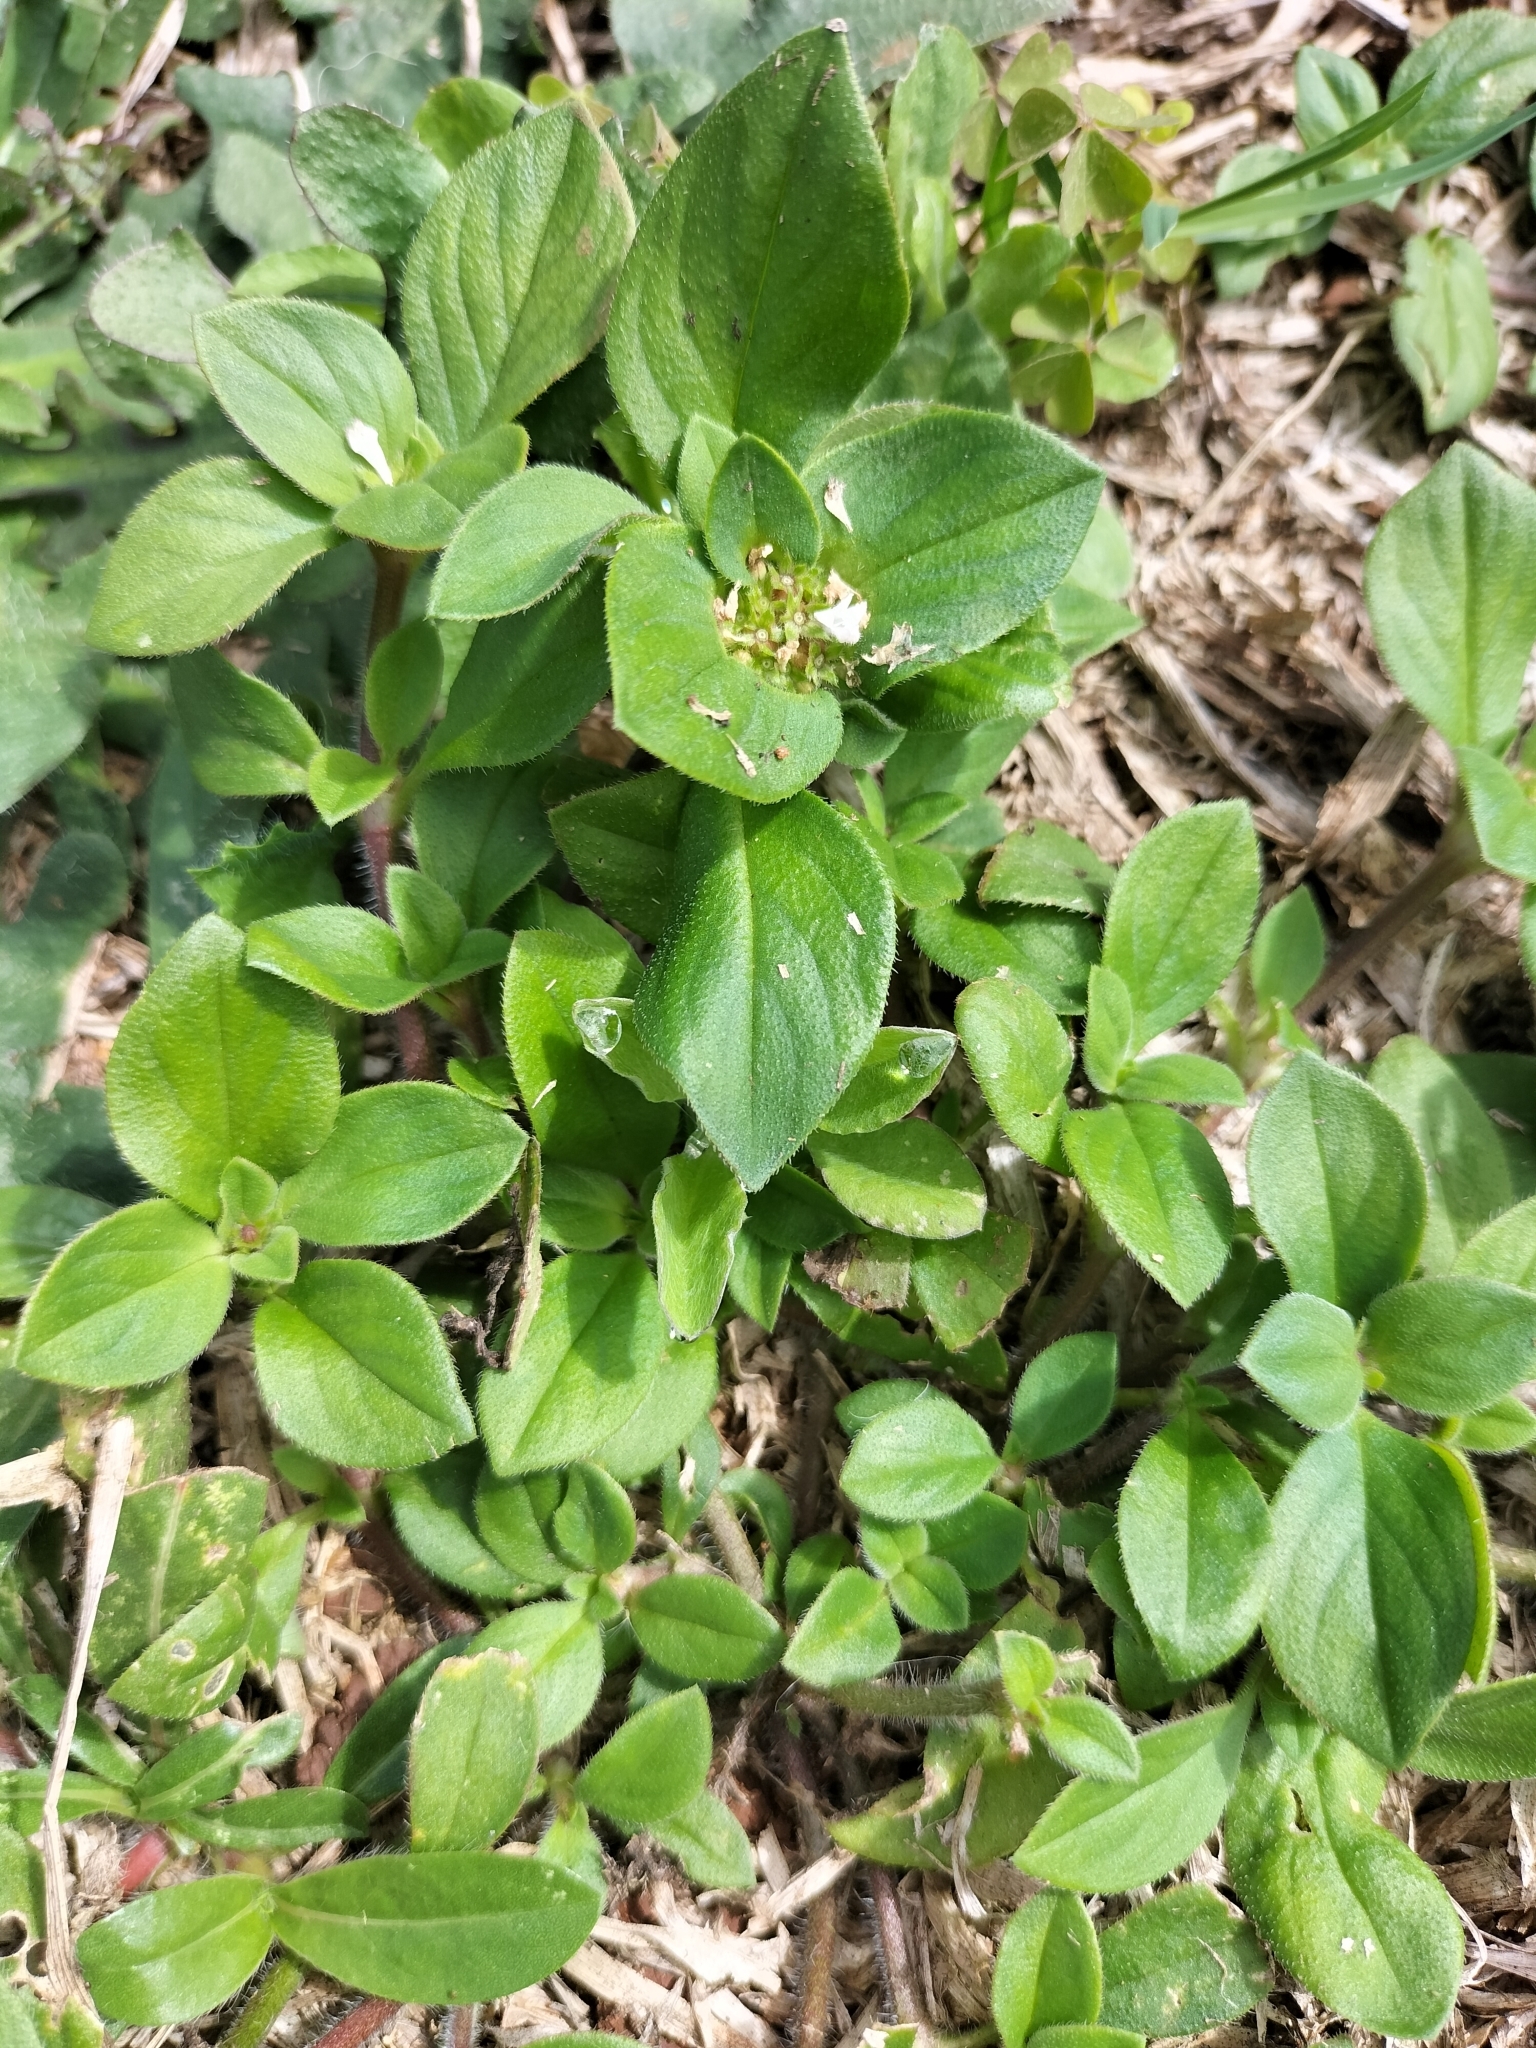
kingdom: Plantae
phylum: Tracheophyta
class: Magnoliopsida
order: Gentianales
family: Rubiaceae
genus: Richardia
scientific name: Richardia brasiliensis
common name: Tropical mexican clover
